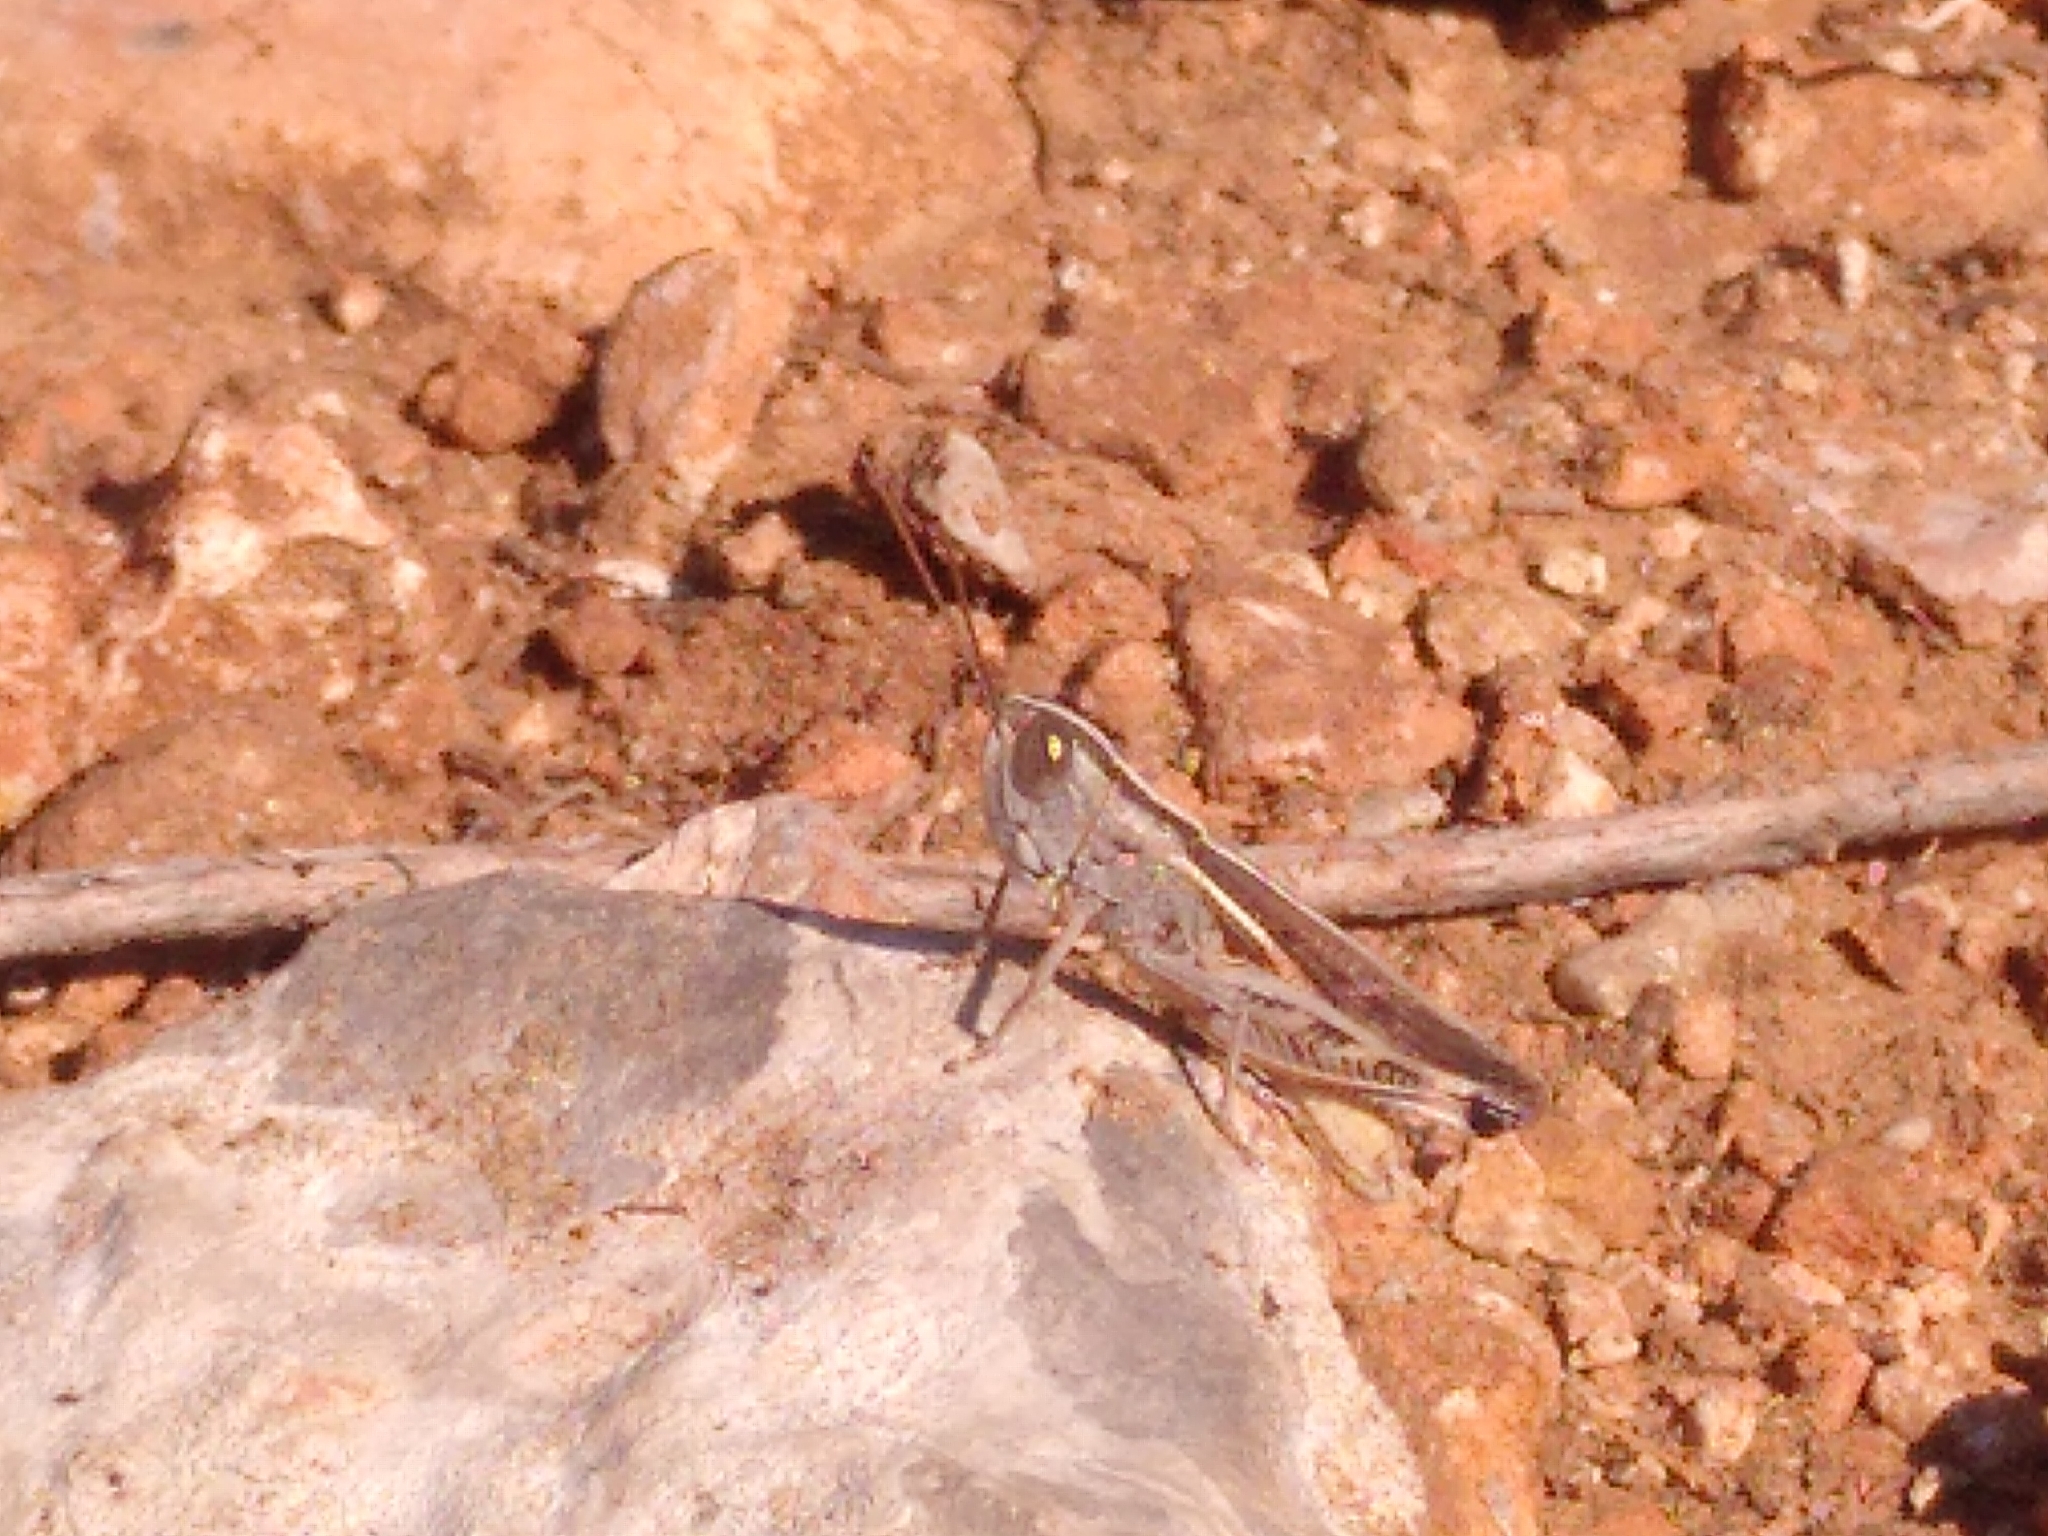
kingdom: Animalia
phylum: Arthropoda
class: Insecta
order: Orthoptera
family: Acrididae
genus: Ramburiella
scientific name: Ramburiella hispanica
